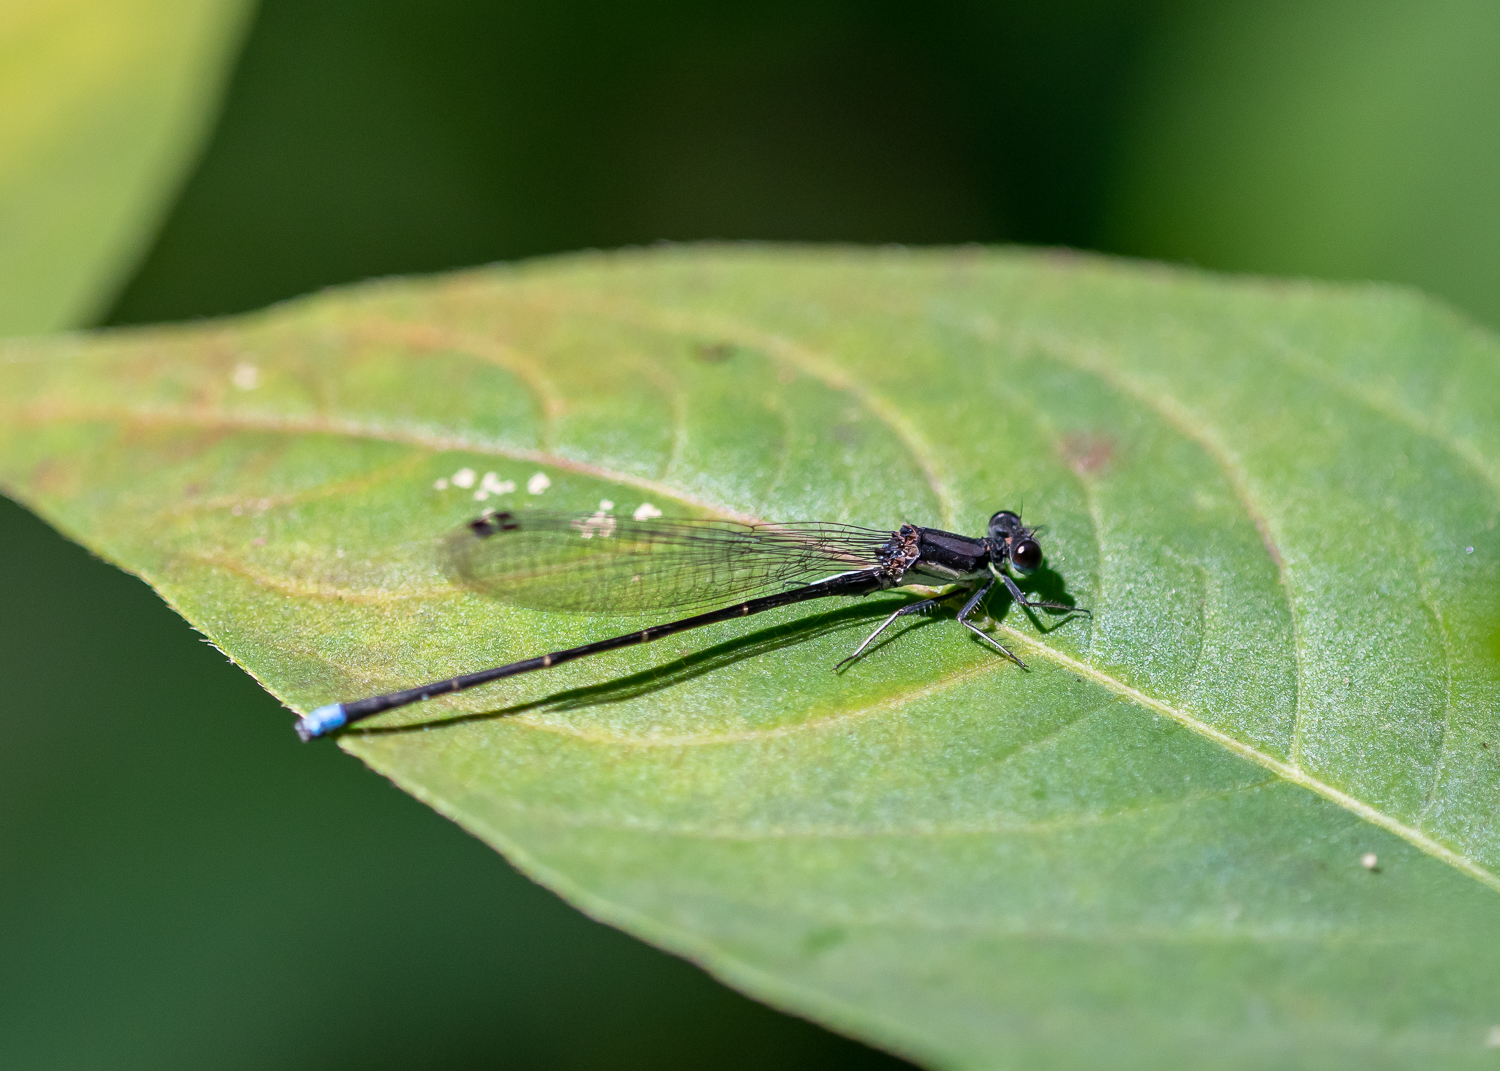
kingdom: Animalia
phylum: Arthropoda
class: Insecta
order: Odonata
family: Coenagrionidae
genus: Argia
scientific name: Argia tibialis
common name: Blue-tipped dancer
